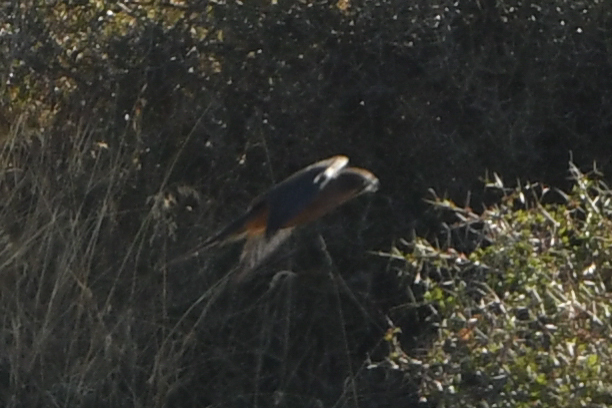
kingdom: Animalia
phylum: Chordata
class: Aves
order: Falconiformes
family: Falconidae
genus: Falco
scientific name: Falco novaeseelandiae
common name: New zealand falcon
